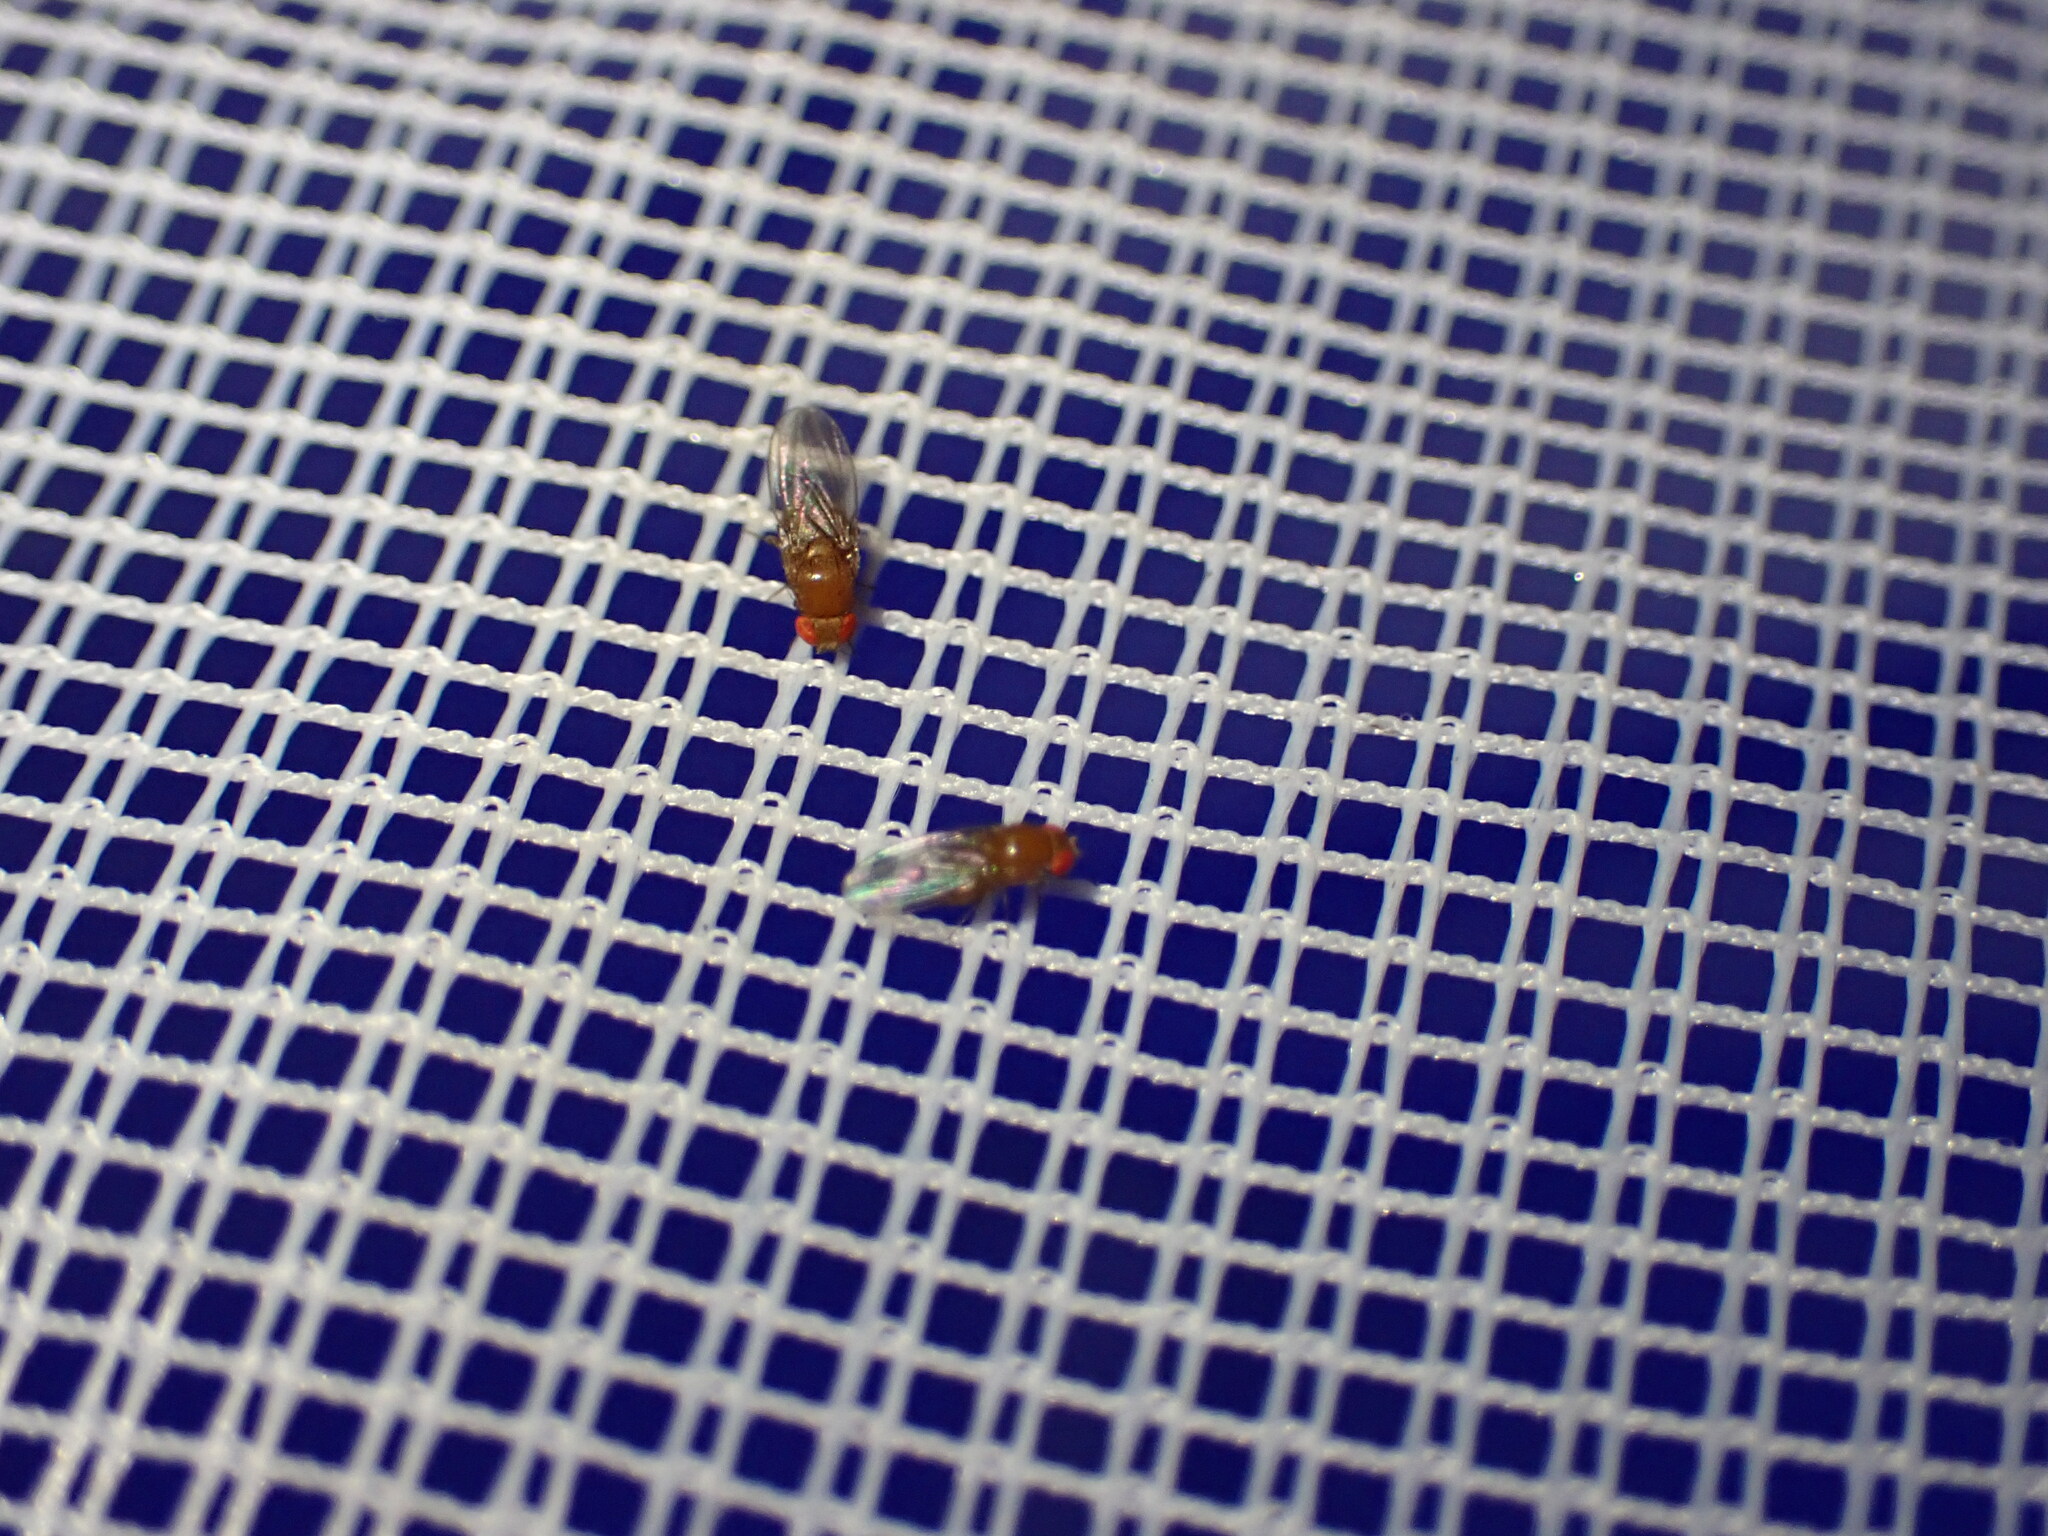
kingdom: Animalia
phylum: Arthropoda
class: Insecta
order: Diptera
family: Drosophilidae
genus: Drosophila
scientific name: Drosophila
